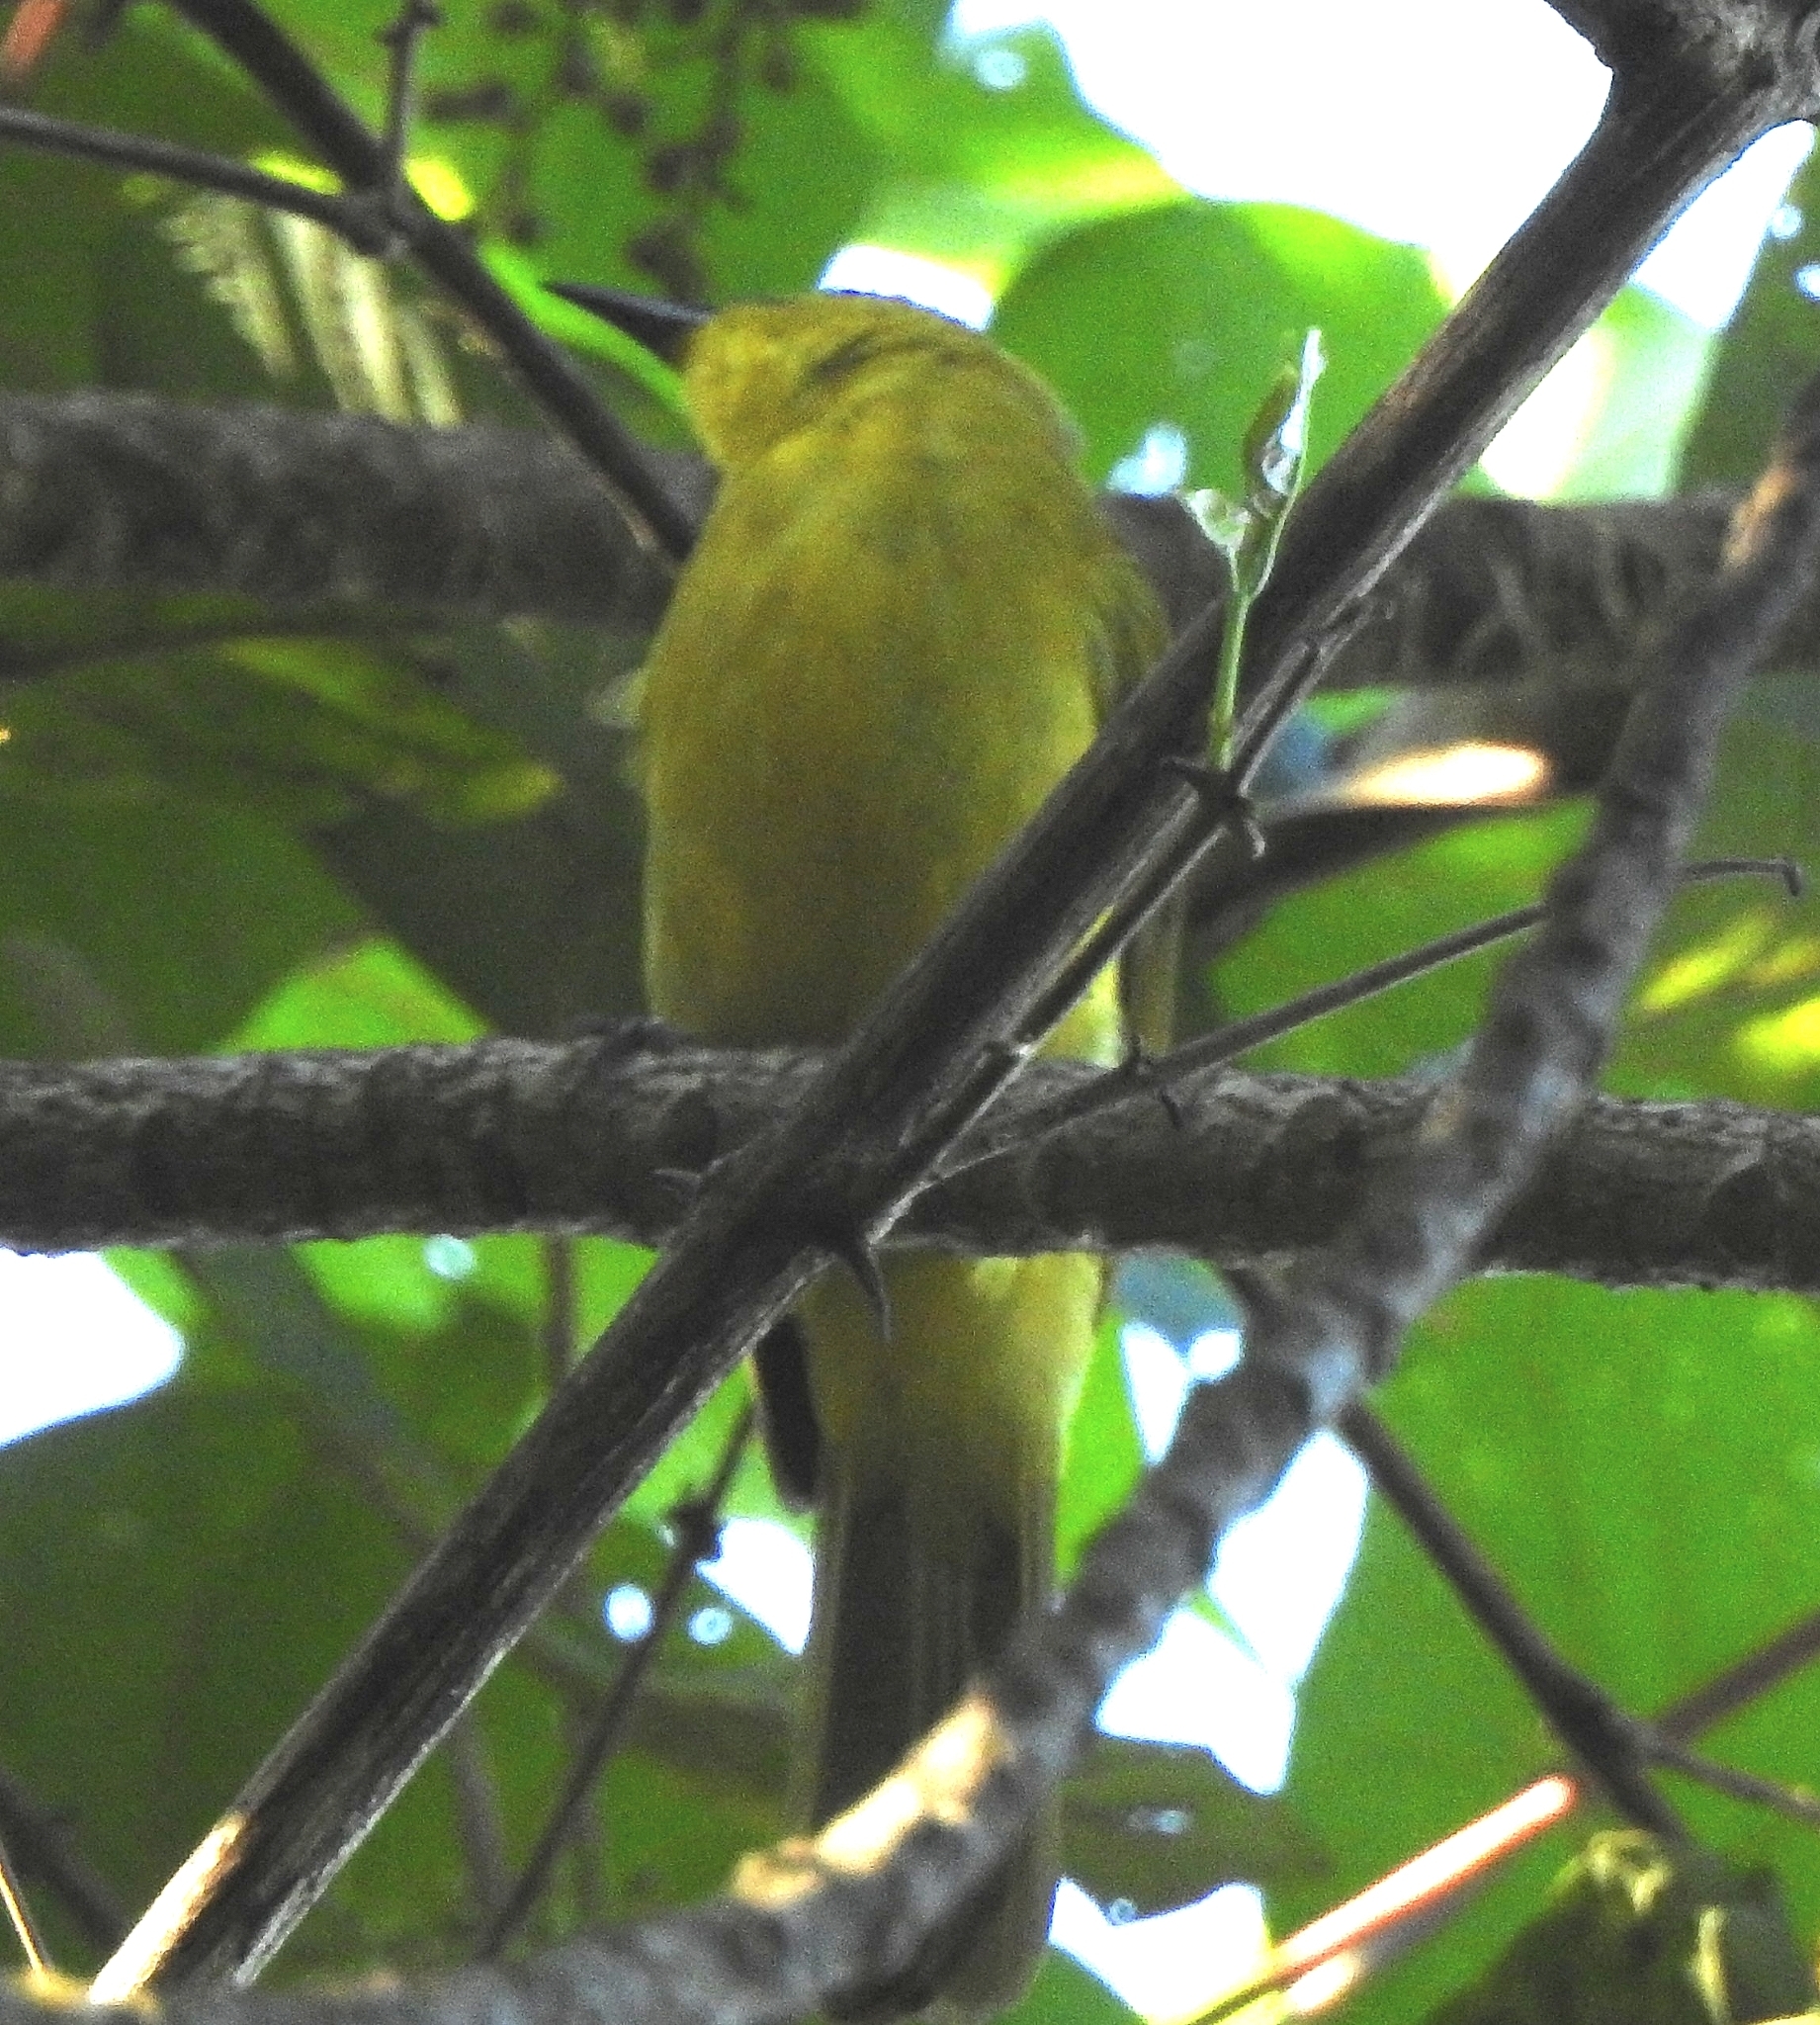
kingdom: Animalia
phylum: Chordata
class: Aves
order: Passeriformes
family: Pycnonotidae
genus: Acritillas
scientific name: Acritillas indica
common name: Yellow-browed bulbul
